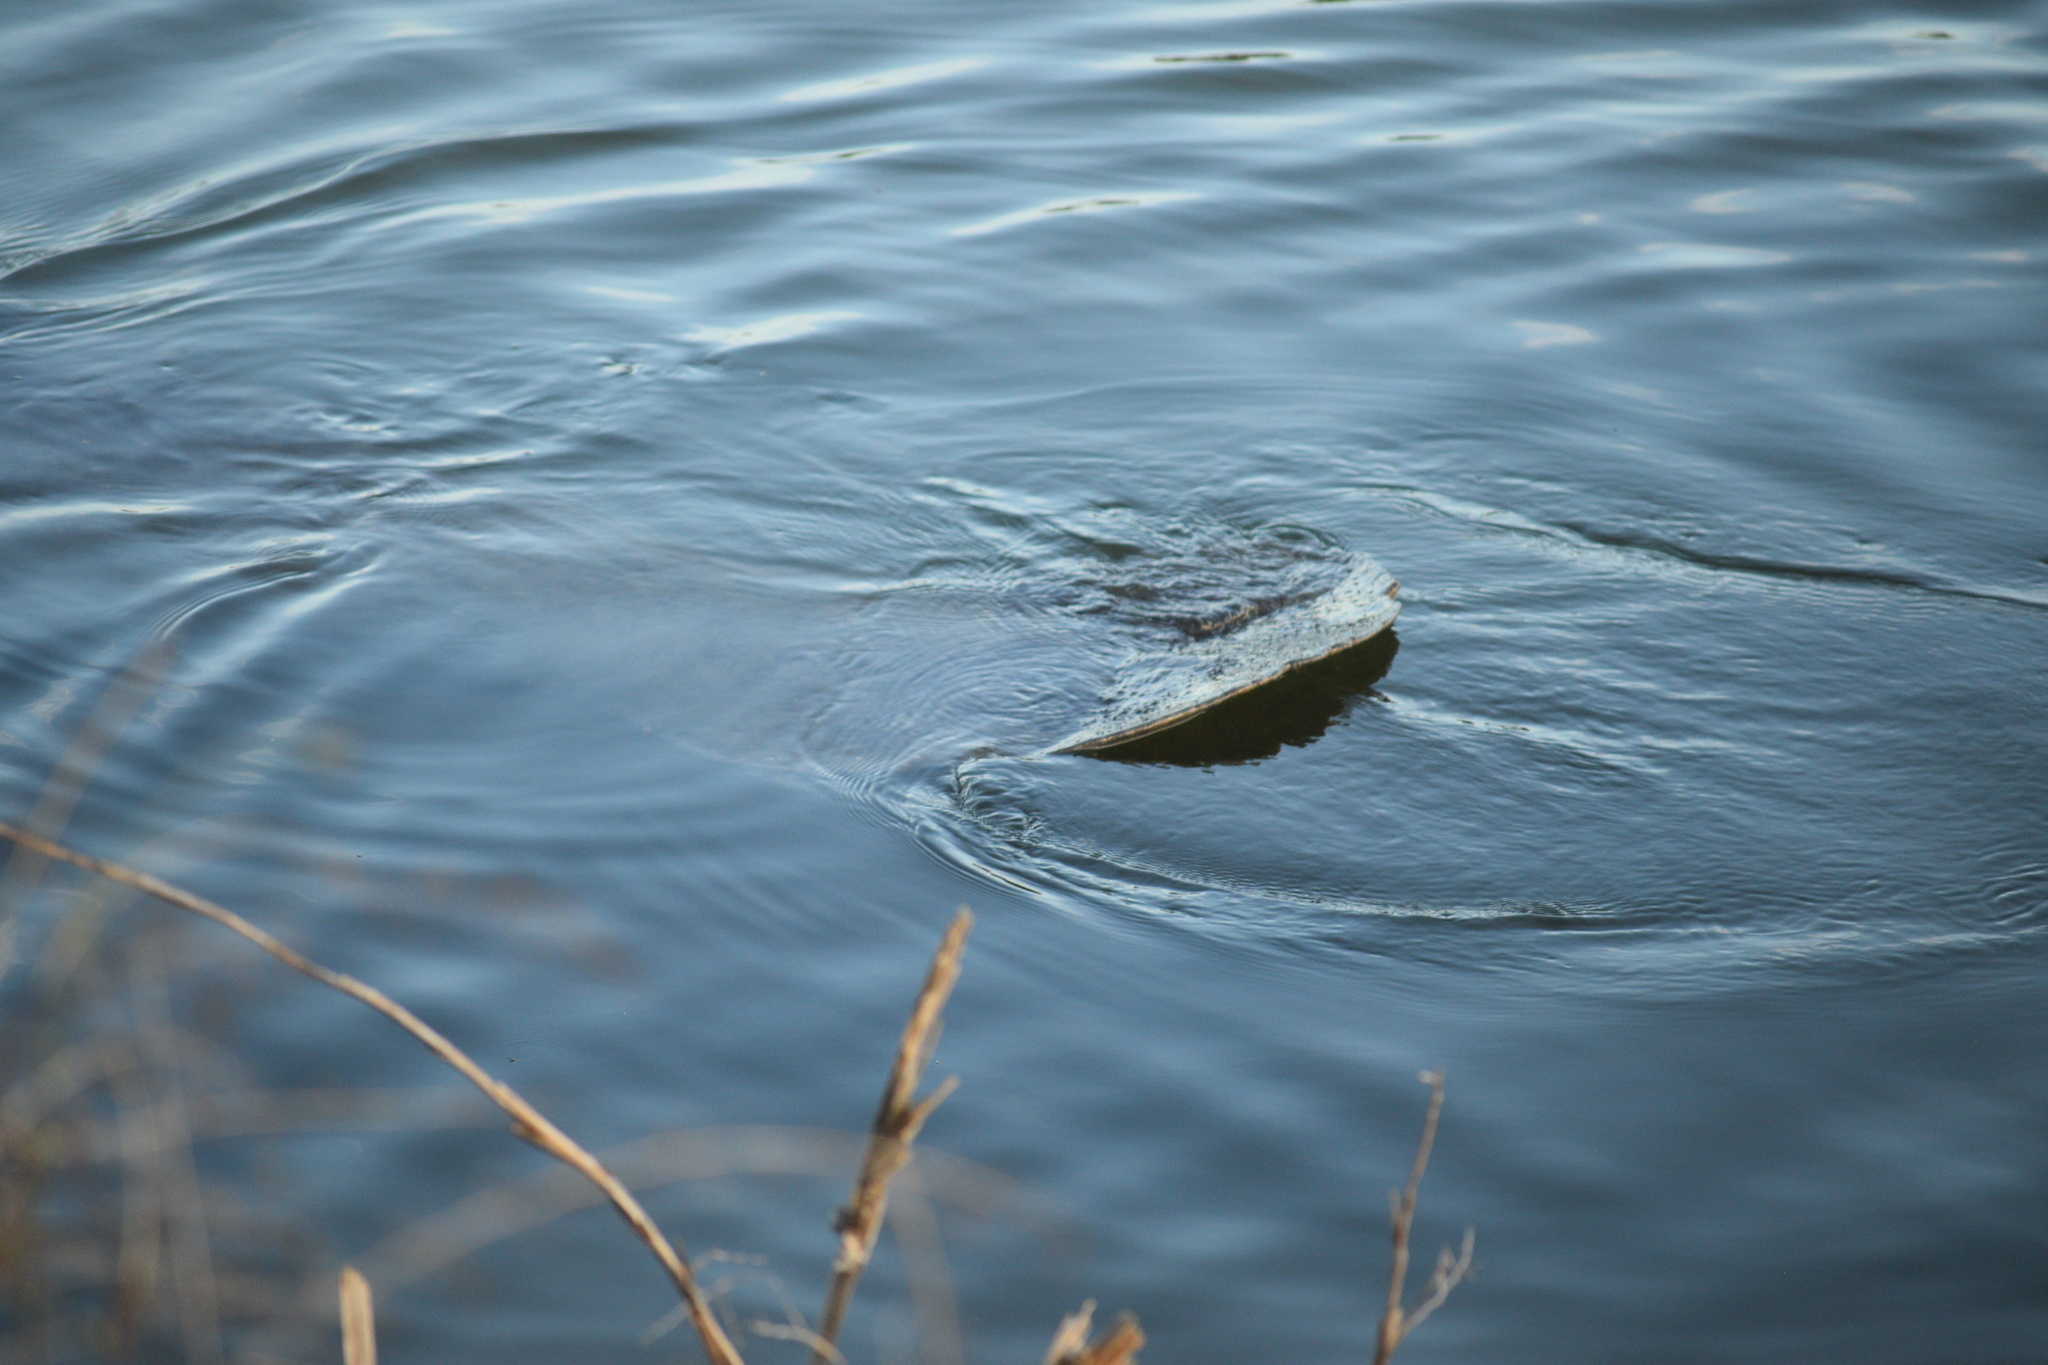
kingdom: Animalia
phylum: Chordata
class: Mammalia
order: Sirenia
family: Trichechidae
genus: Trichechus
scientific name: Trichechus manatus
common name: West indian manatee
